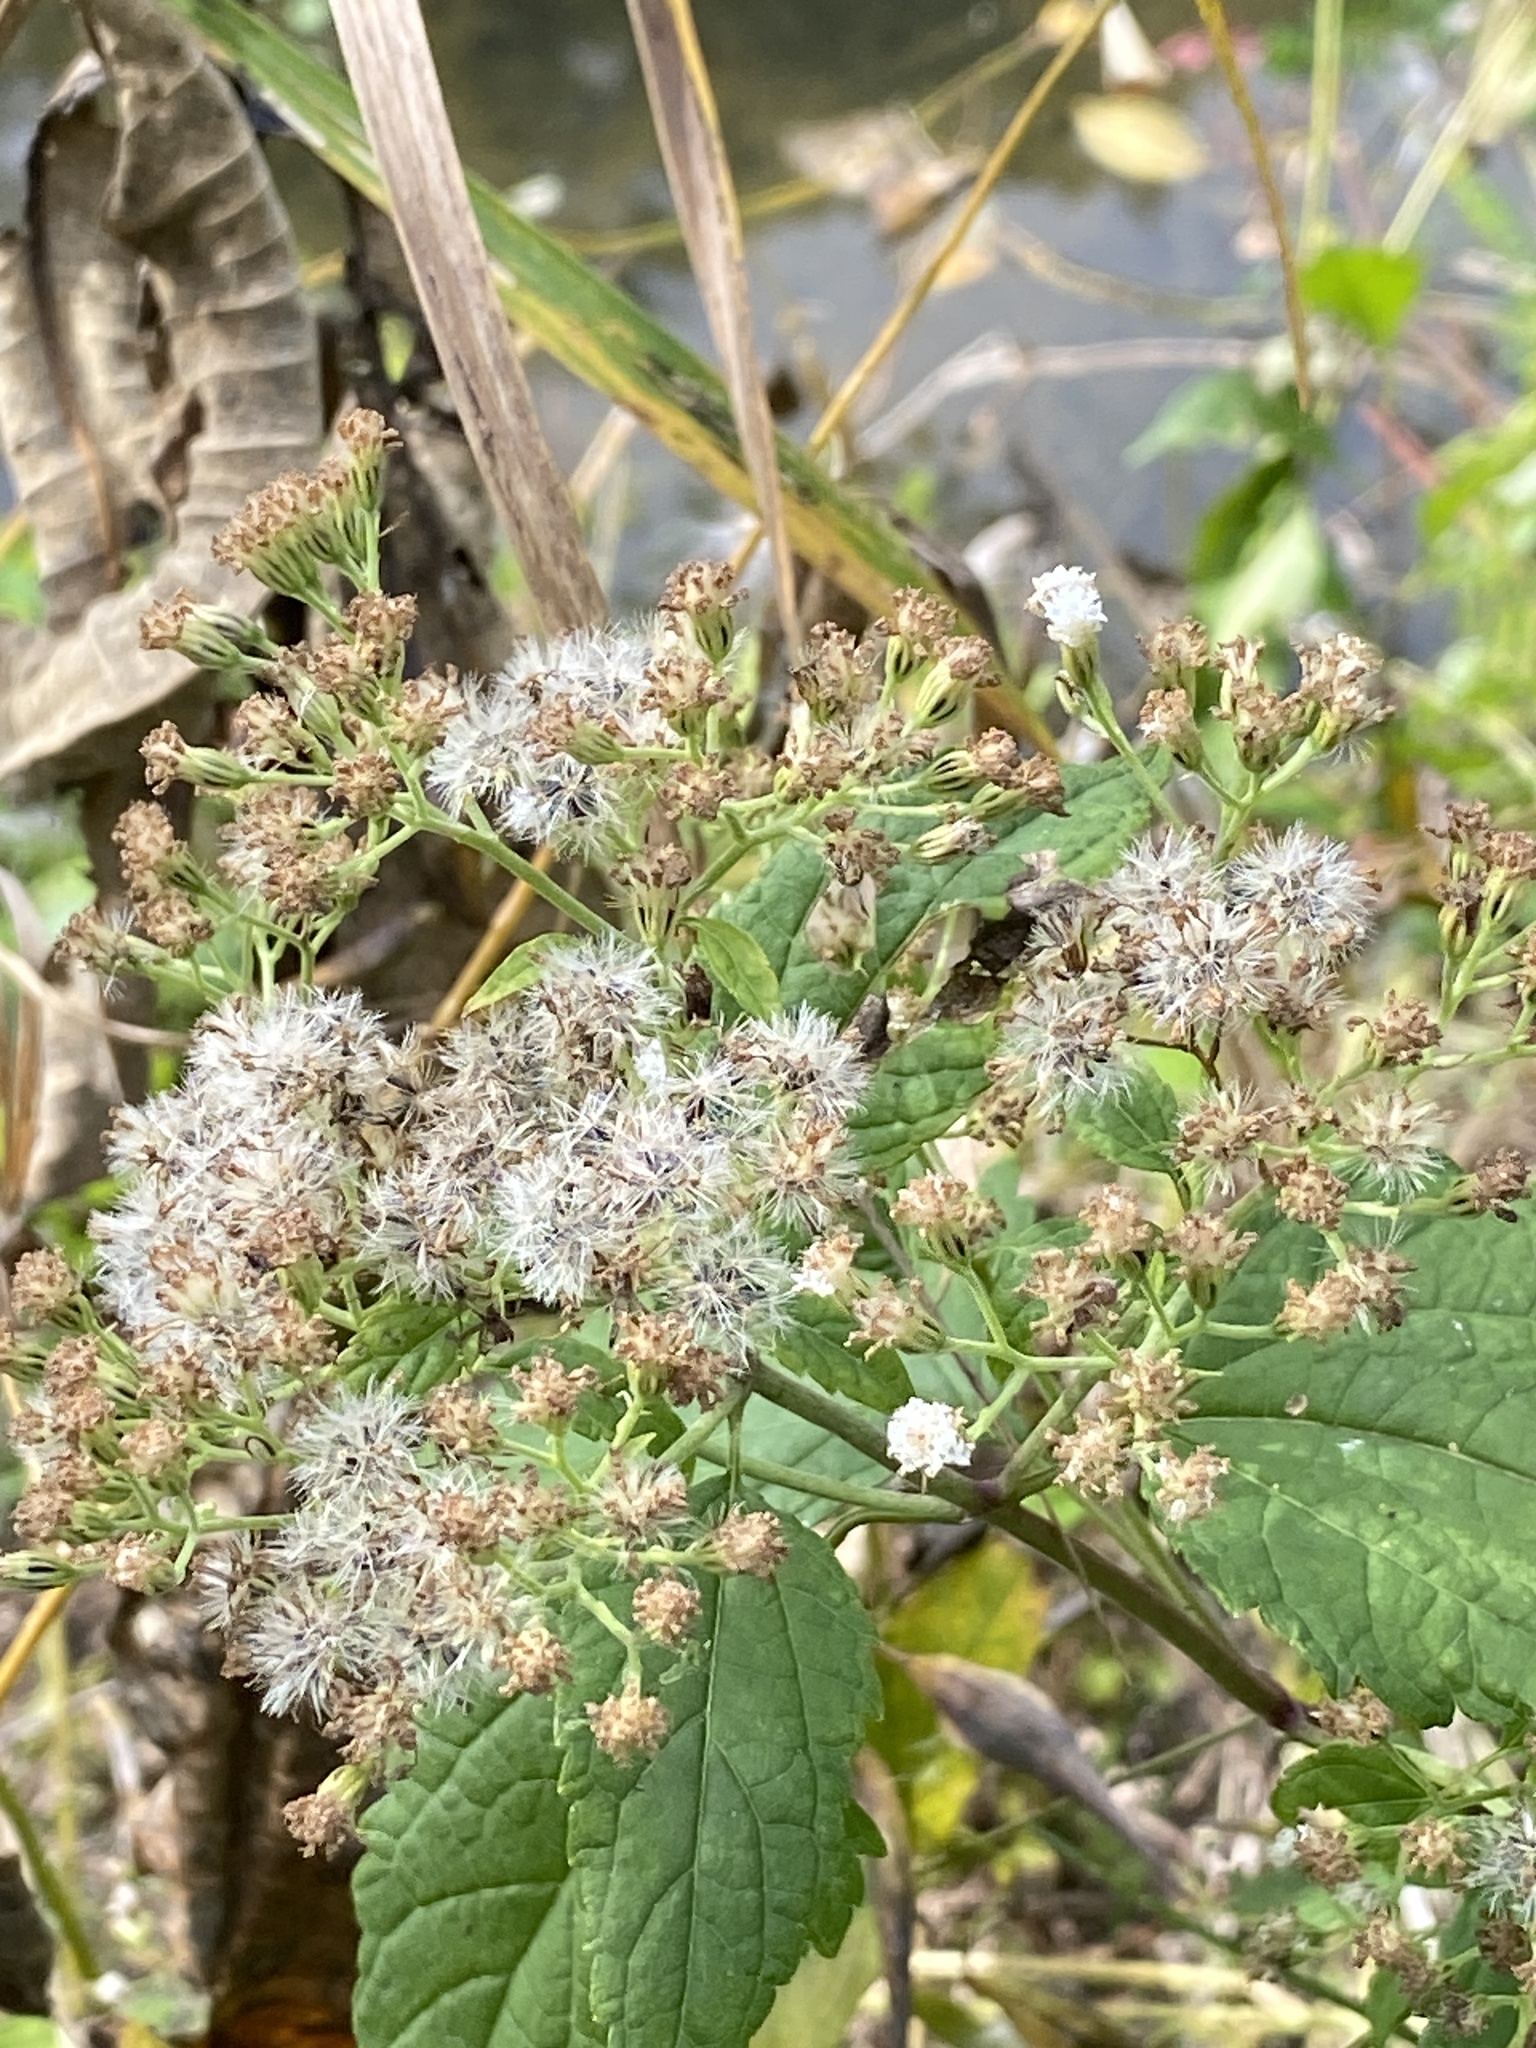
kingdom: Plantae
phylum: Tracheophyta
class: Magnoliopsida
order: Asterales
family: Asteraceae
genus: Ageratina
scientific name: Ageratina altissima
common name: White snakeroot
